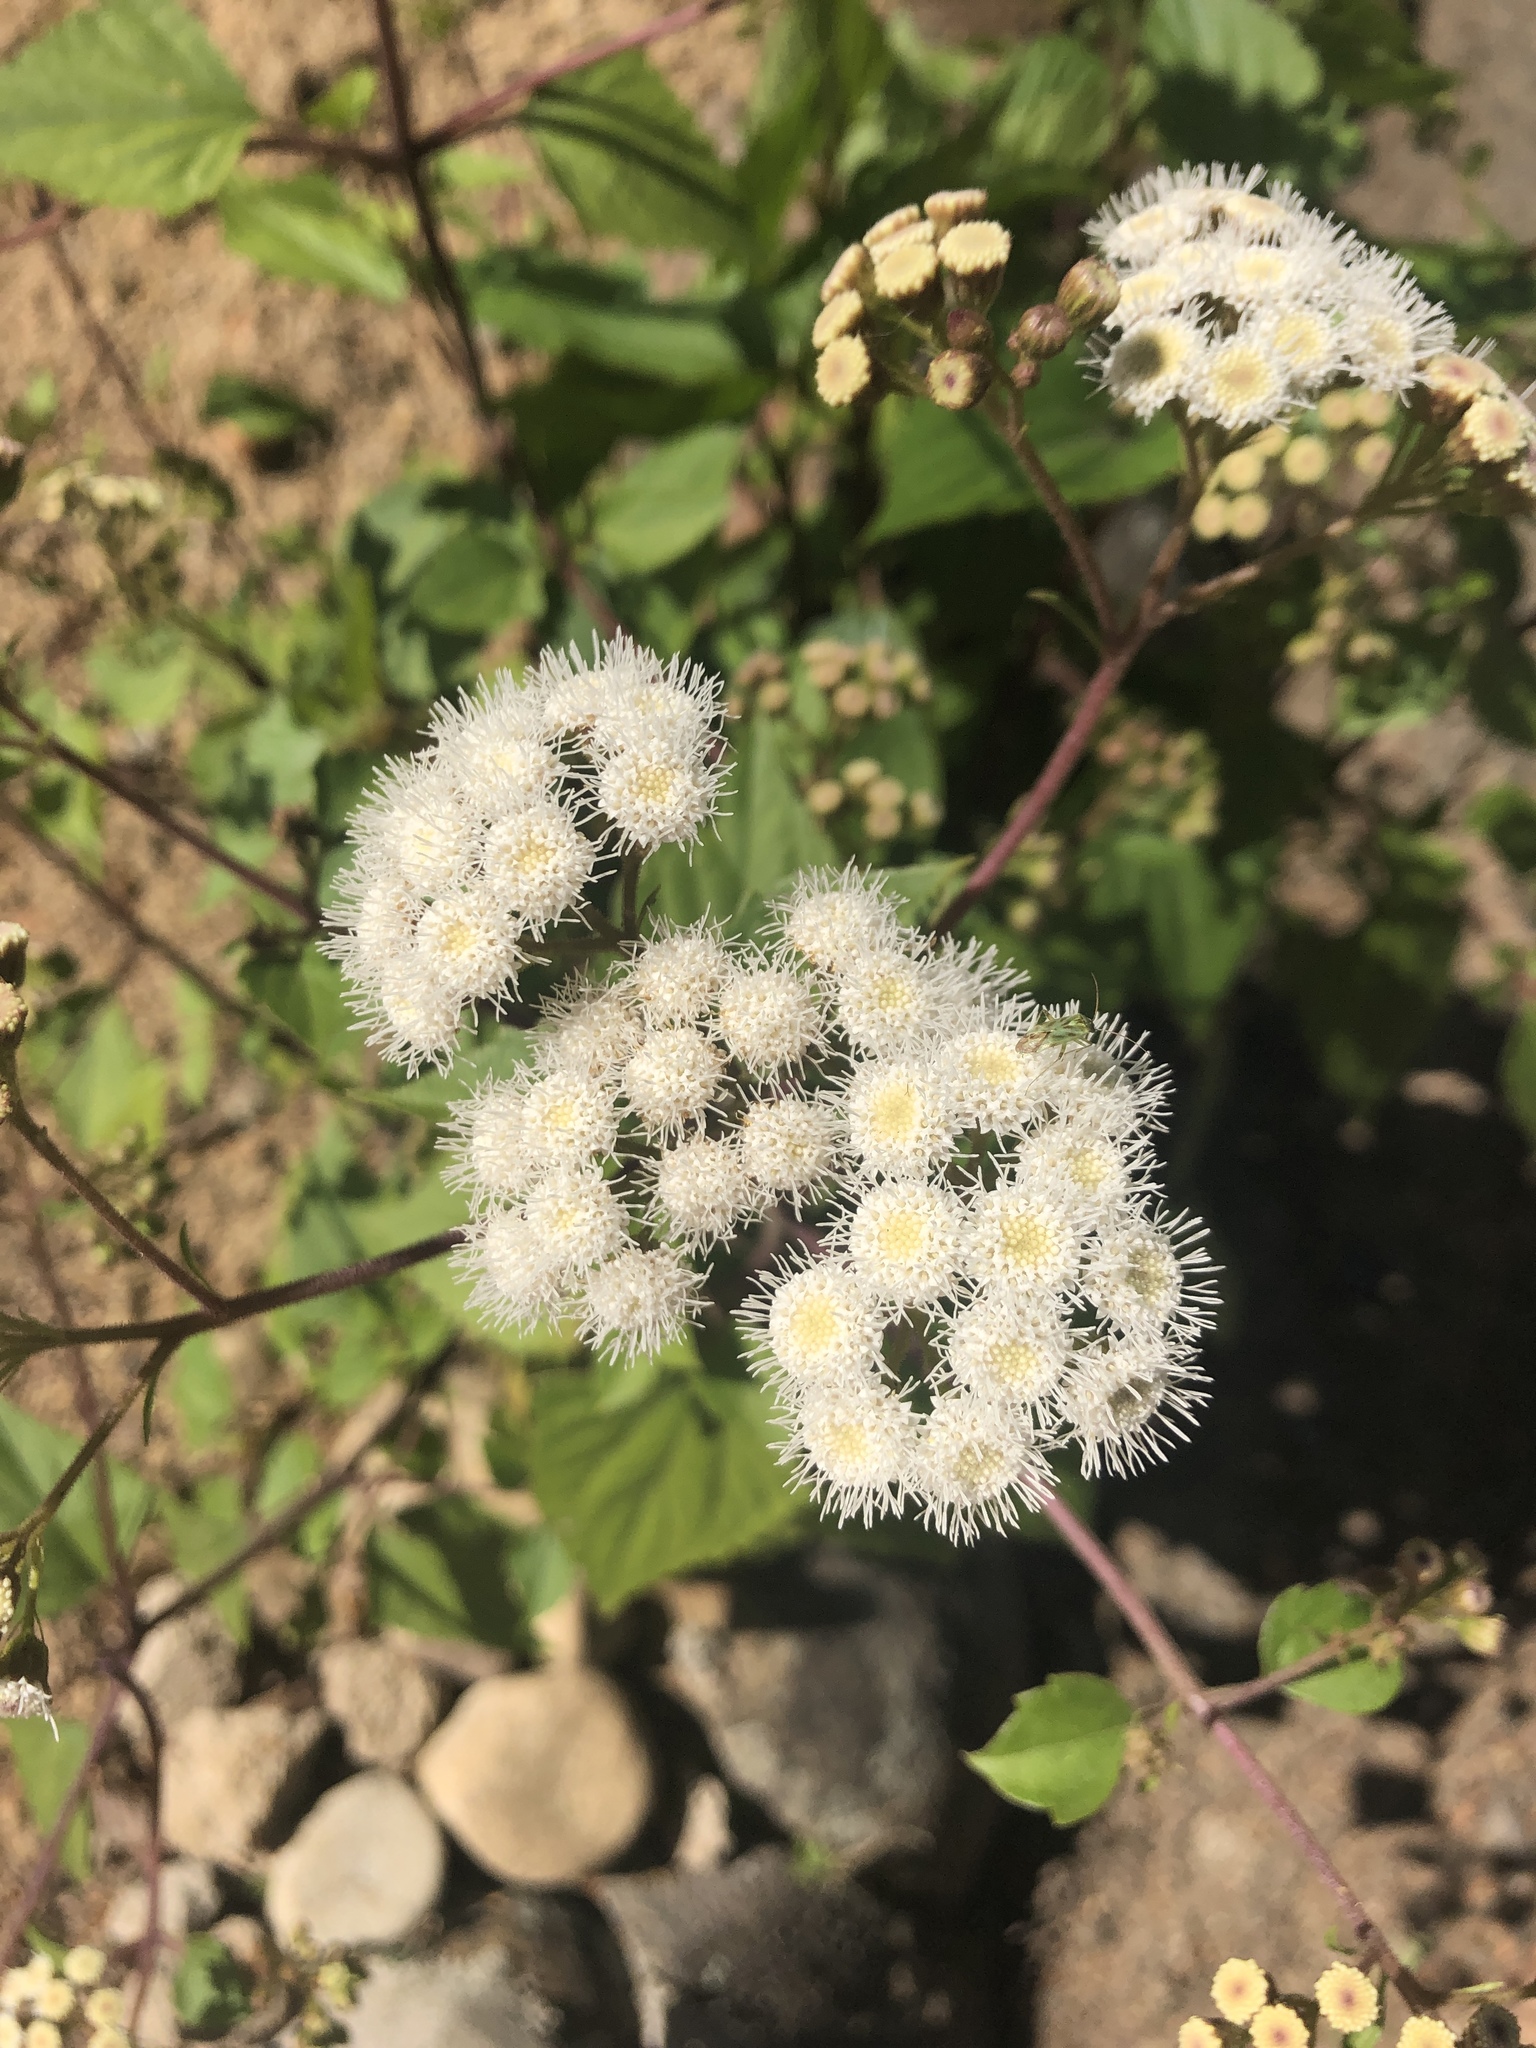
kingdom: Plantae
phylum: Tracheophyta
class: Magnoliopsida
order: Asterales
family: Asteraceae
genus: Ageratina
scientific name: Ageratina adenophora
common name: Sticky snakeroot
